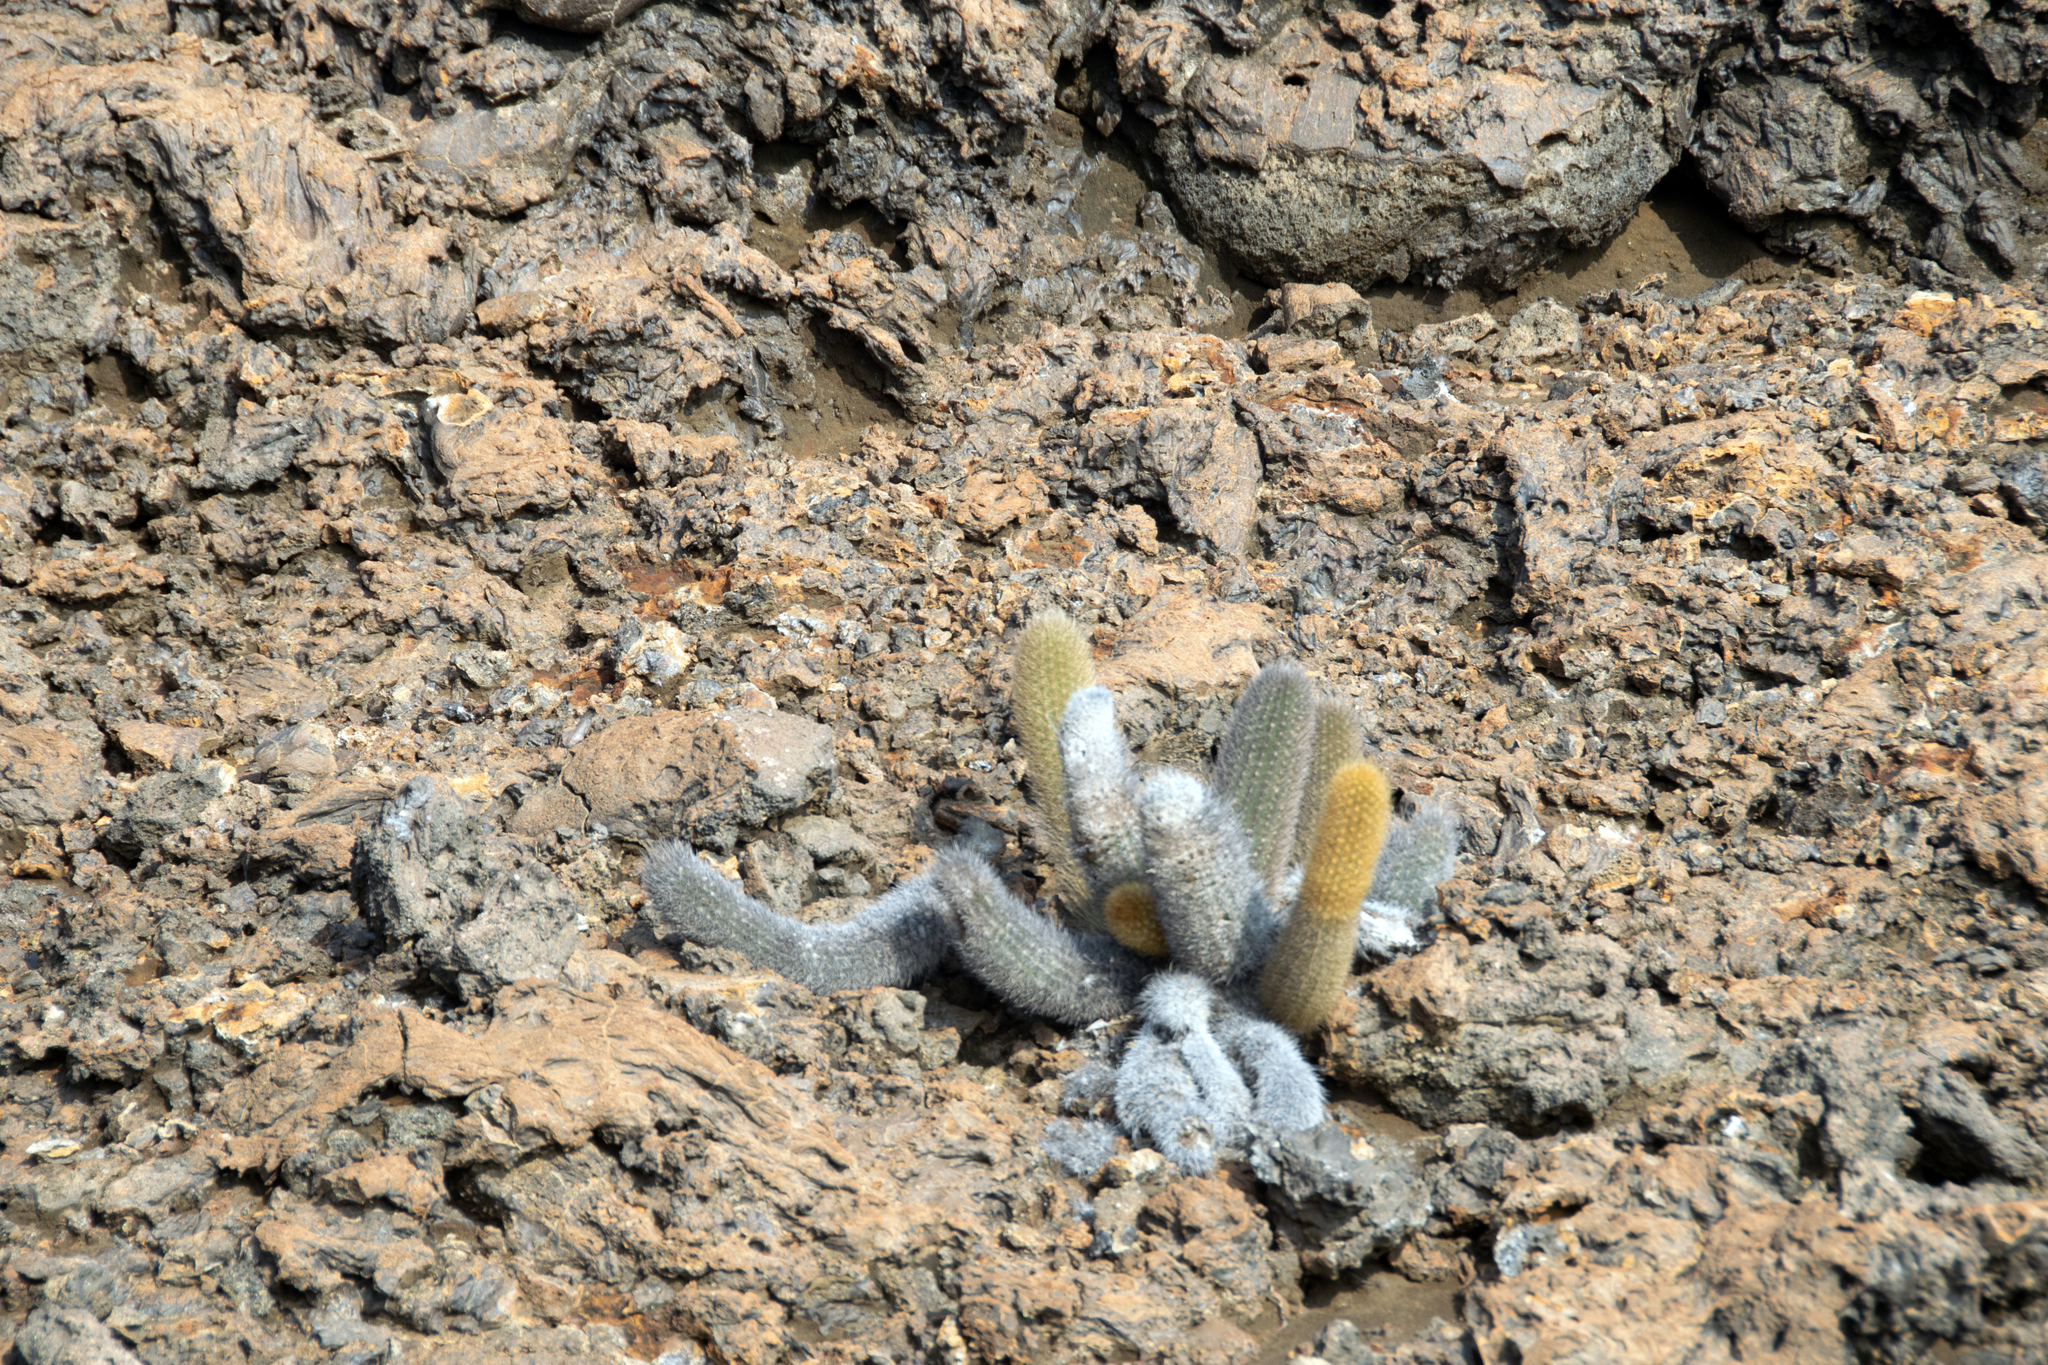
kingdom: Plantae
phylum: Tracheophyta
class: Magnoliopsida
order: Caryophyllales
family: Cactaceae
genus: Brachycereus
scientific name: Brachycereus nesioticus
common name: Lava cactus
